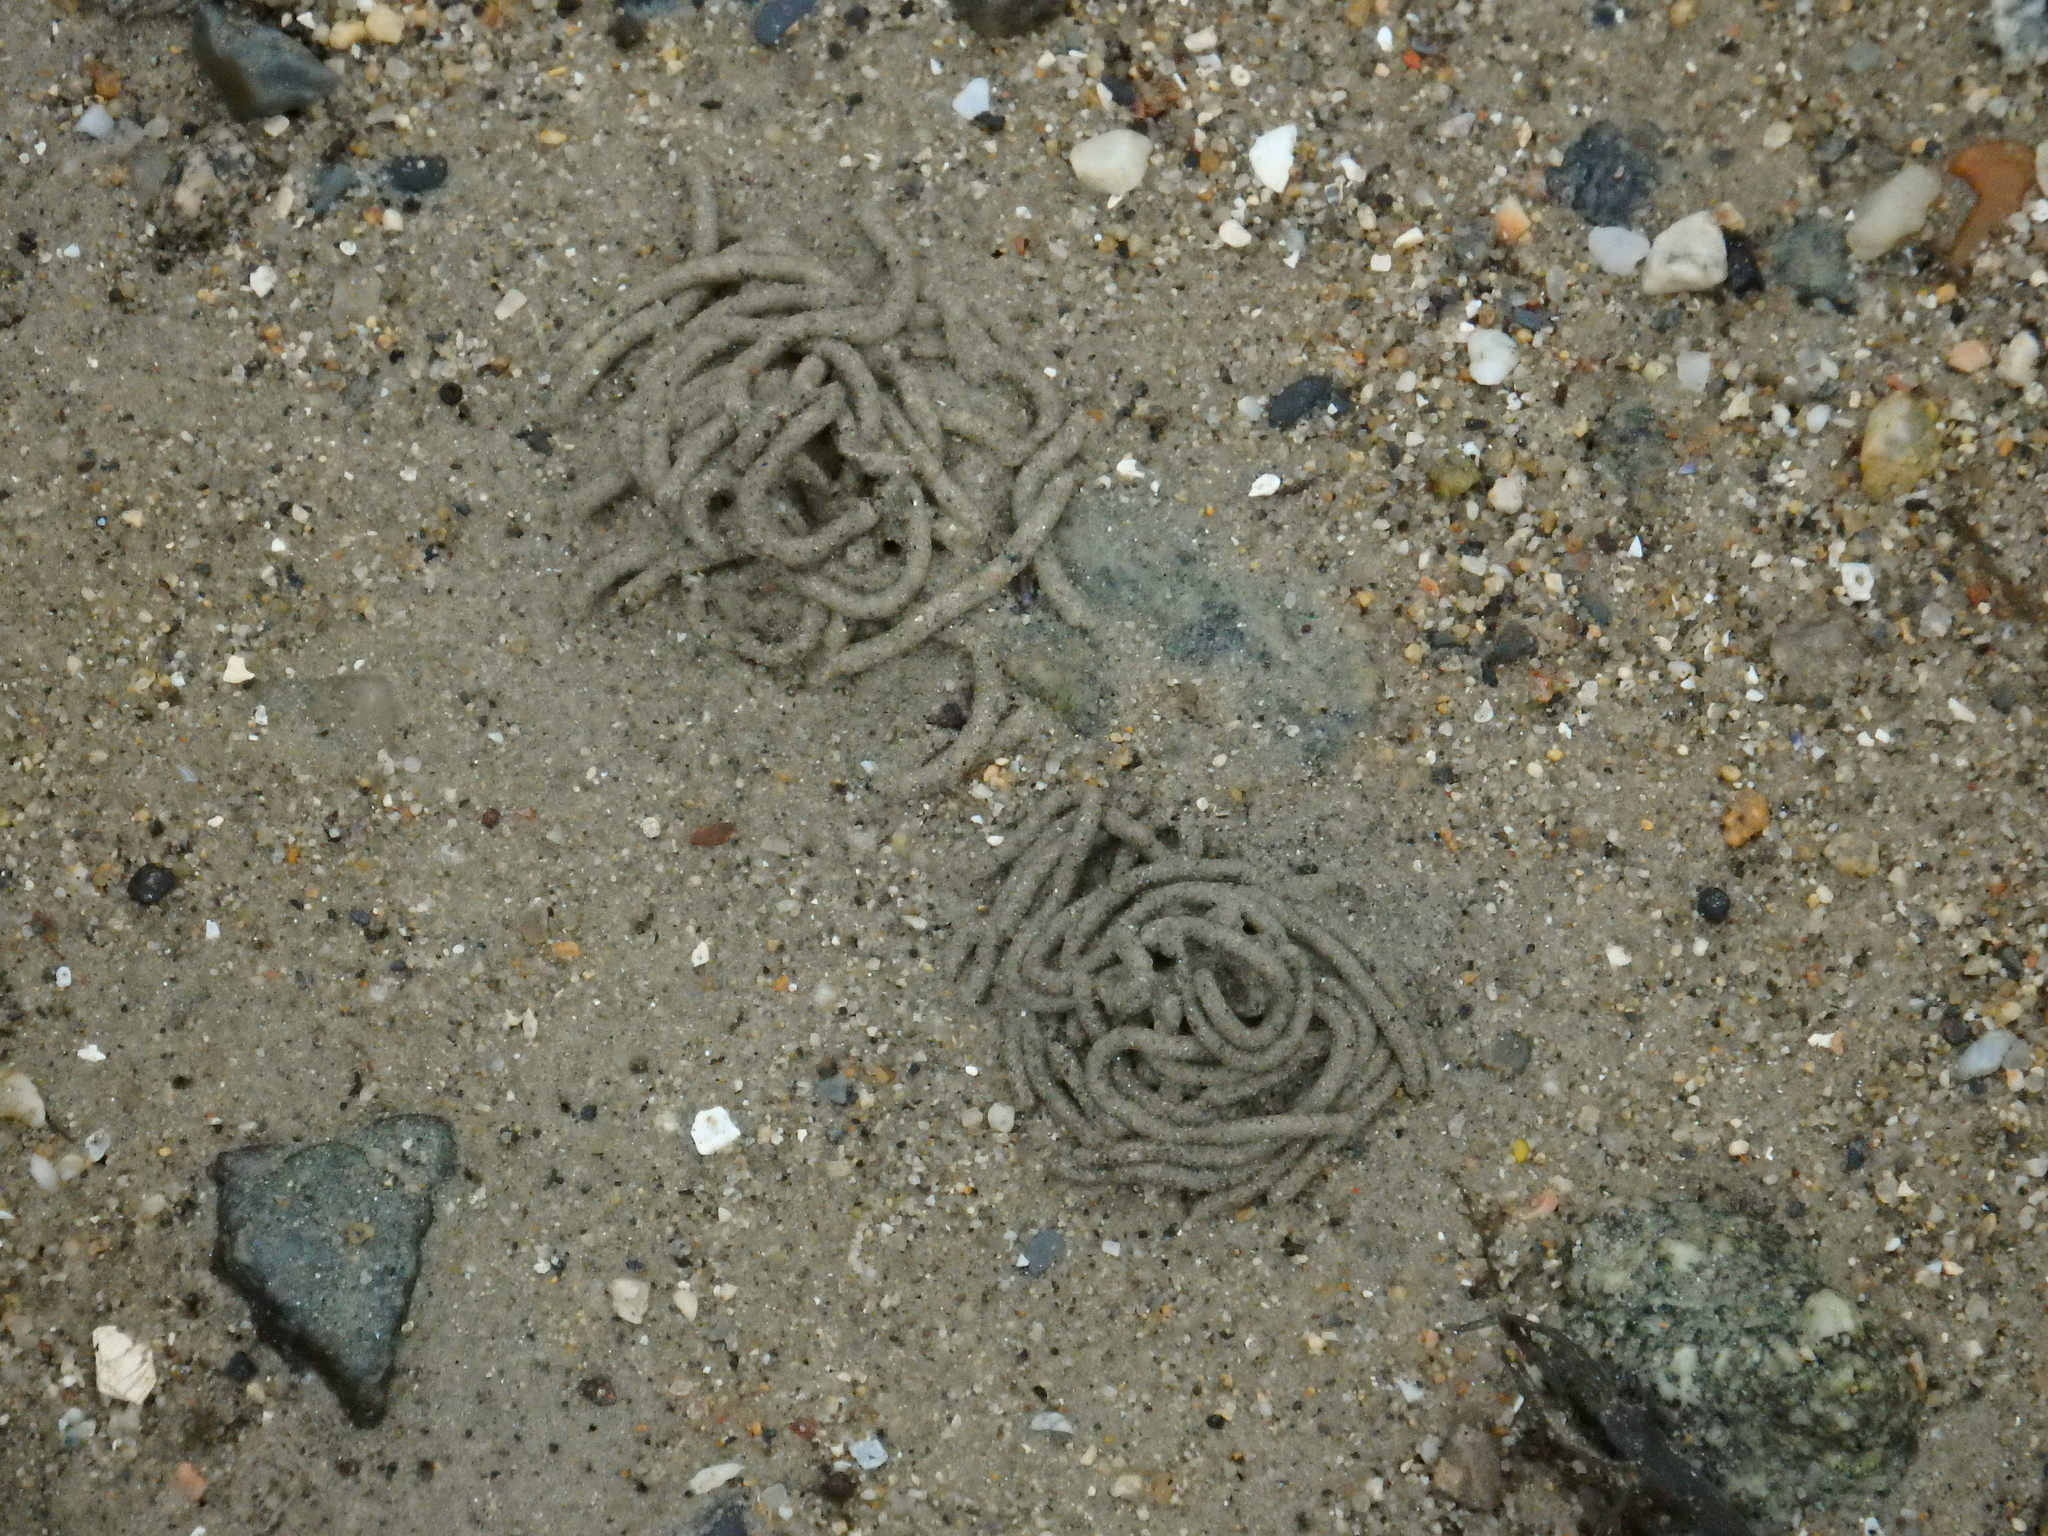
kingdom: Animalia
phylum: Annelida
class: Polychaeta
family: Arenicolidae
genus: Arenicola
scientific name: Arenicola marina
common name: Blow lugworm
